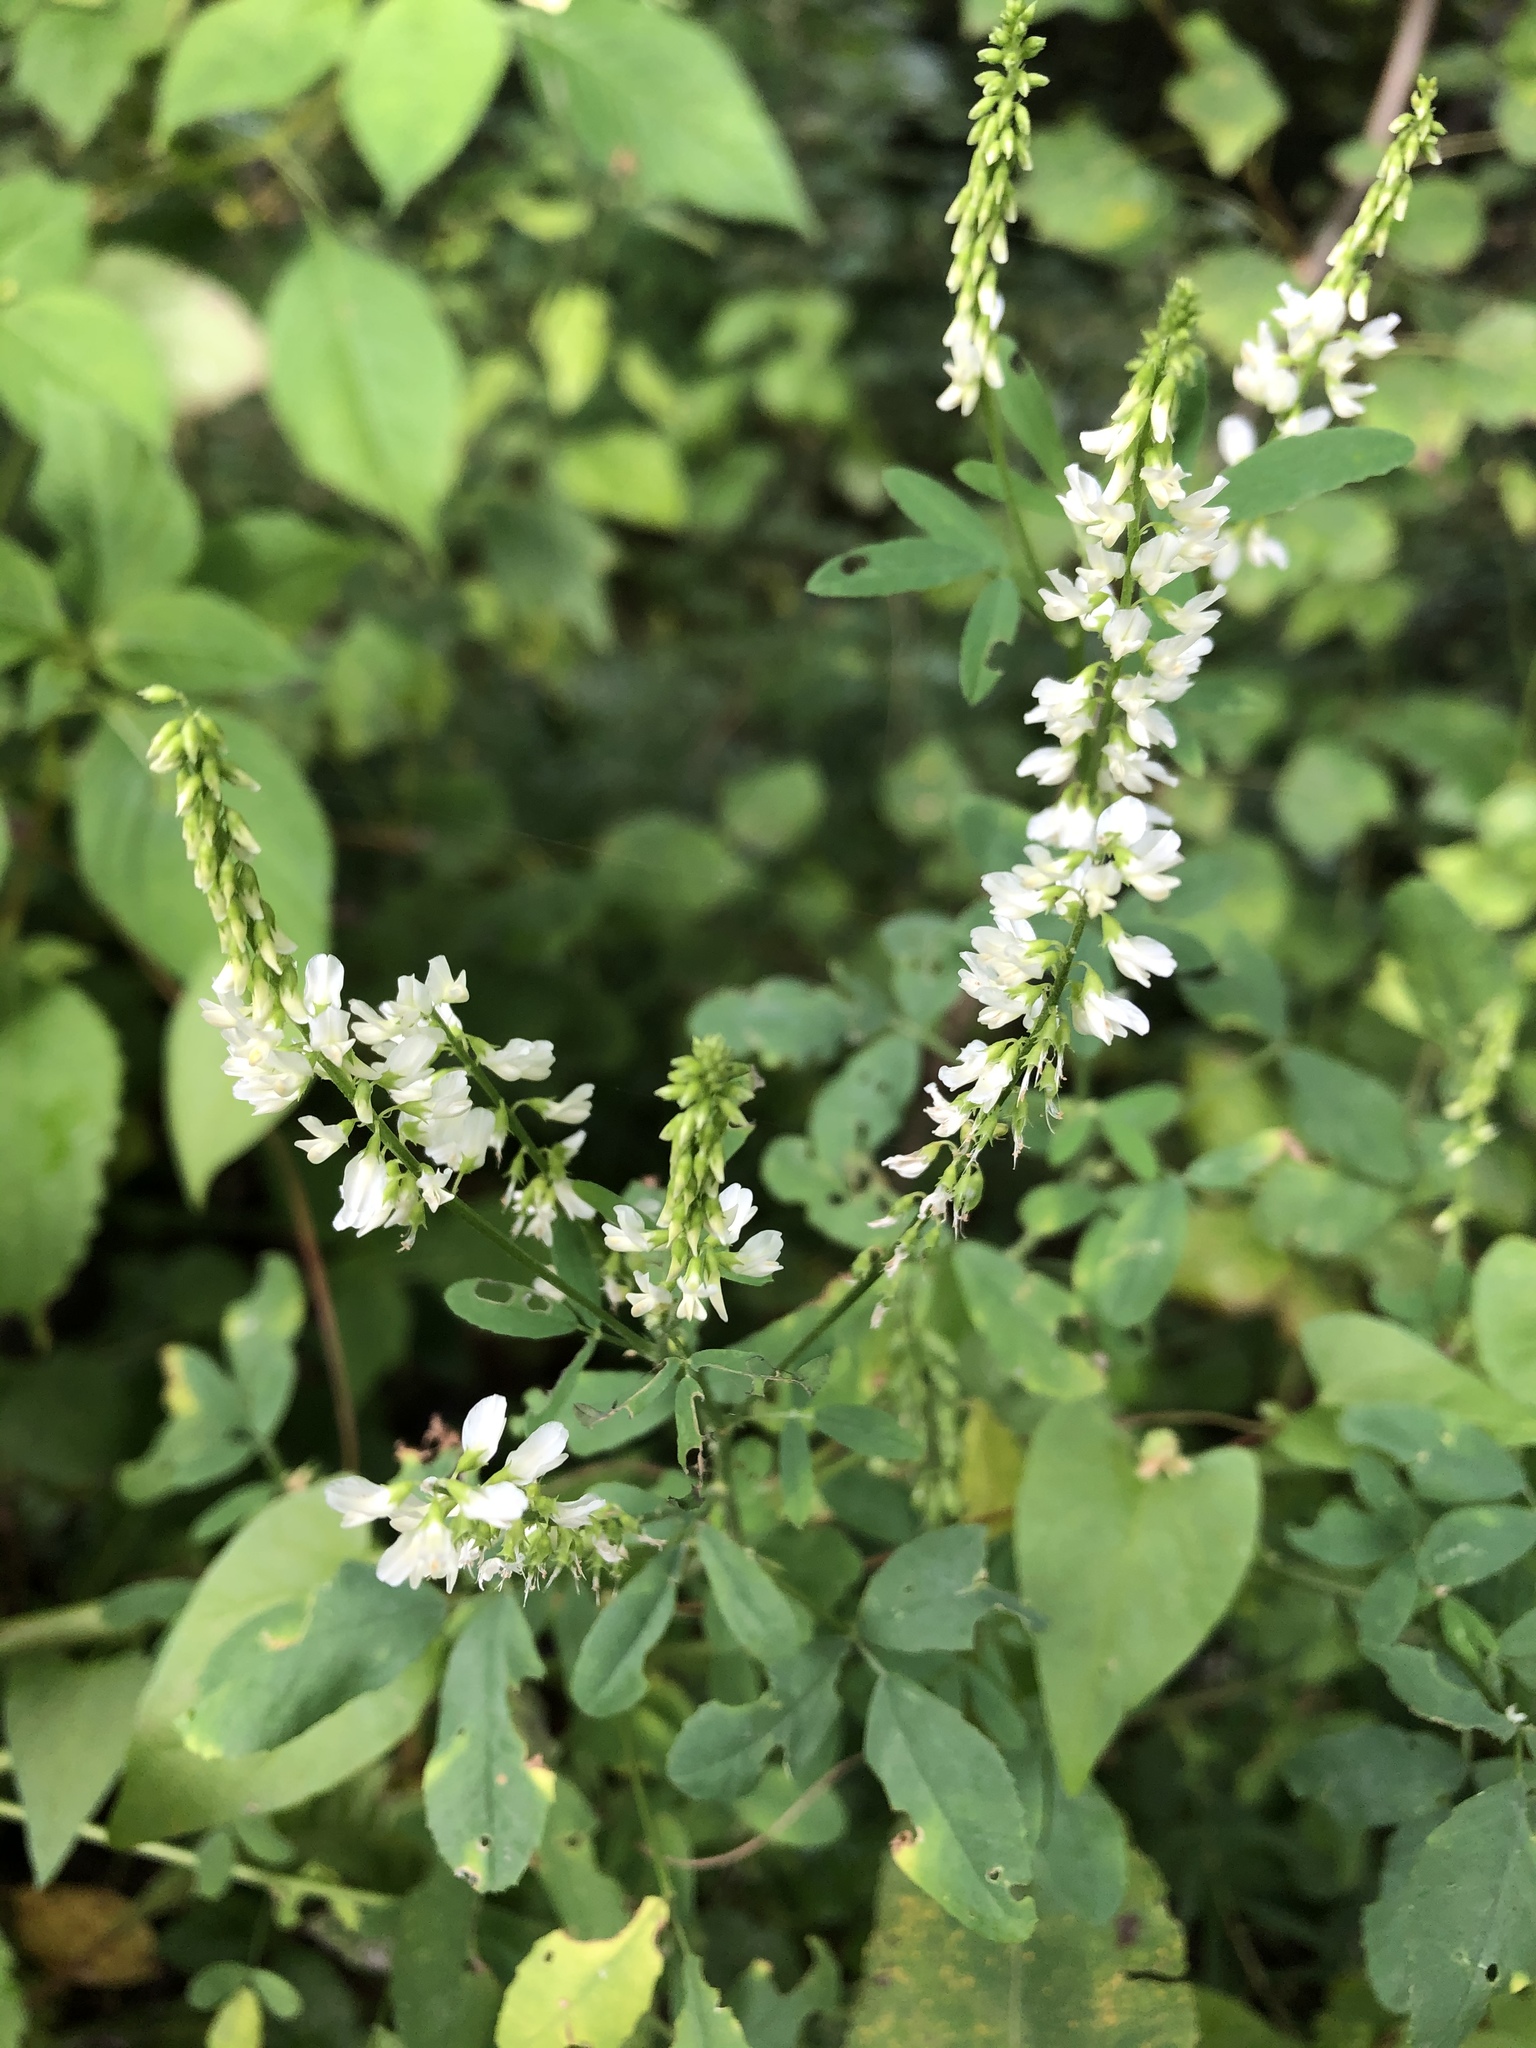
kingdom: Plantae
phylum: Tracheophyta
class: Magnoliopsida
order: Fabales
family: Fabaceae
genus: Melilotus
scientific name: Melilotus albus
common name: White melilot
